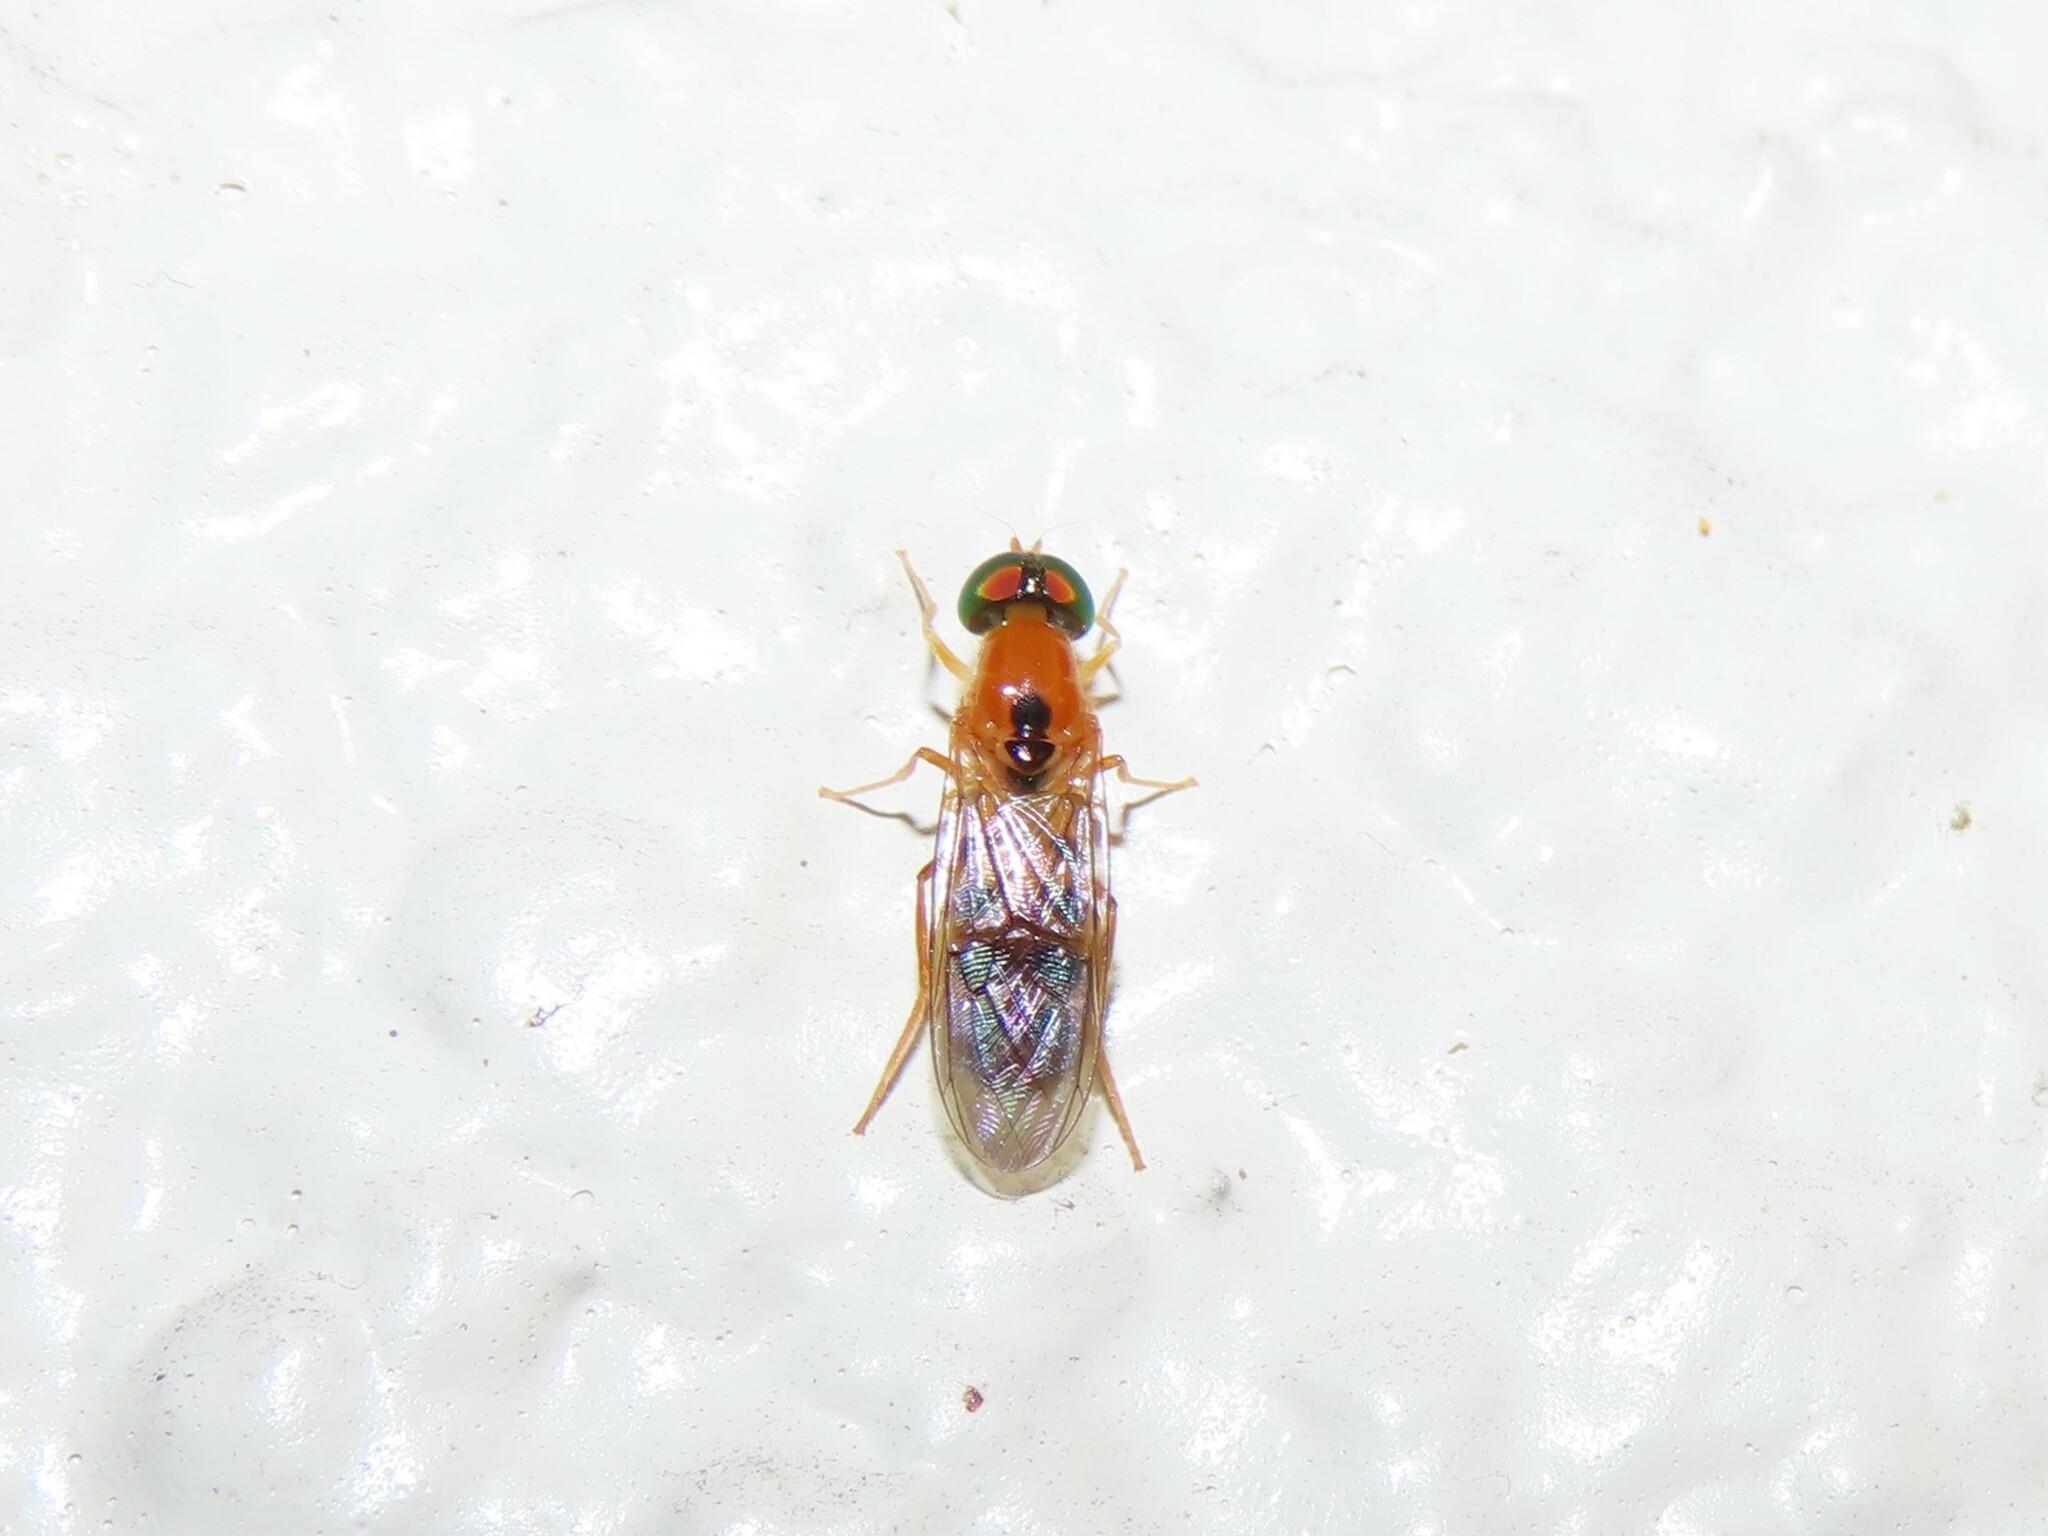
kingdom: Animalia
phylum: Arthropoda
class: Insecta
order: Diptera
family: Stratiomyidae
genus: Sargus
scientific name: Sargus elegans
